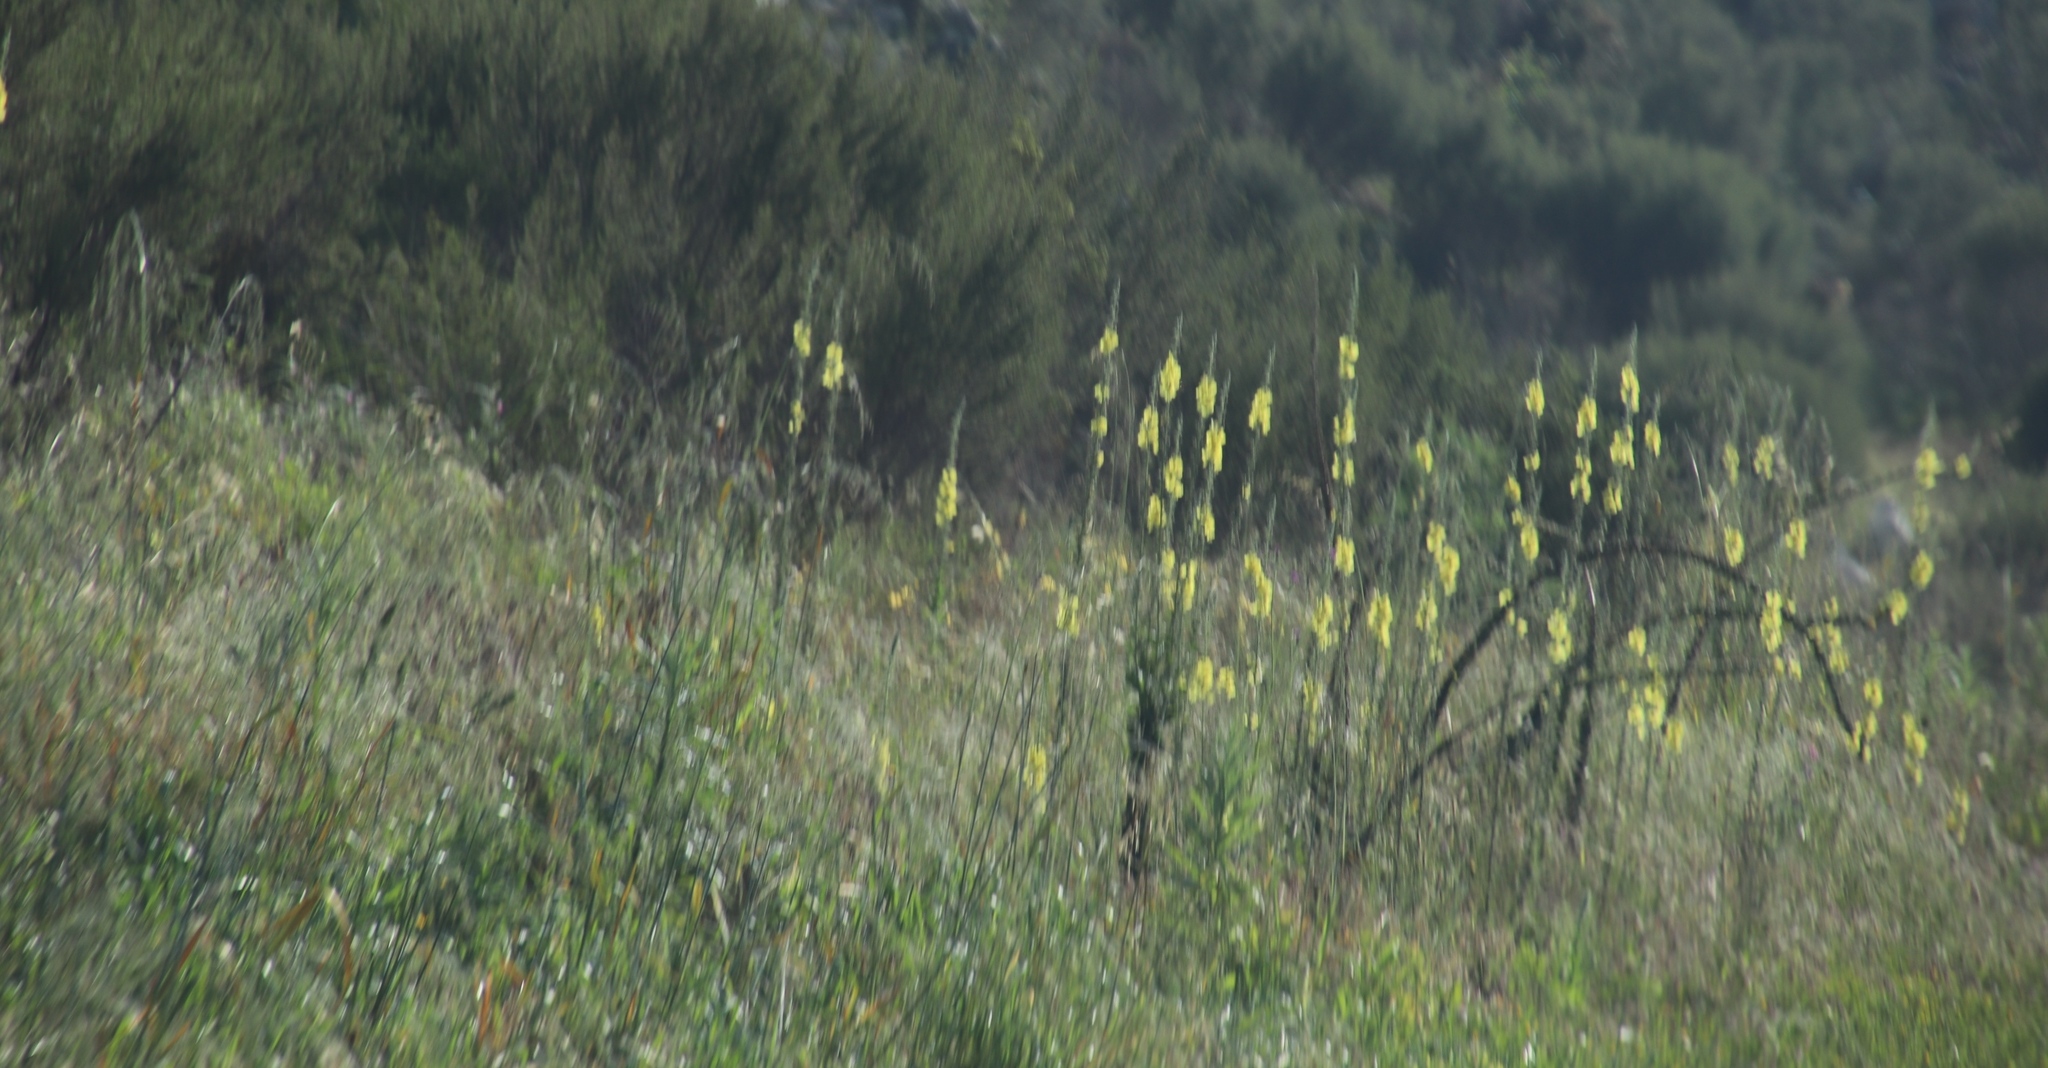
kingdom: Plantae
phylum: Tracheophyta
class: Magnoliopsida
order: Lamiales
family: Scrophulariaceae
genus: Verbascum
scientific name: Verbascum virgatum
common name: Twiggy mullein
